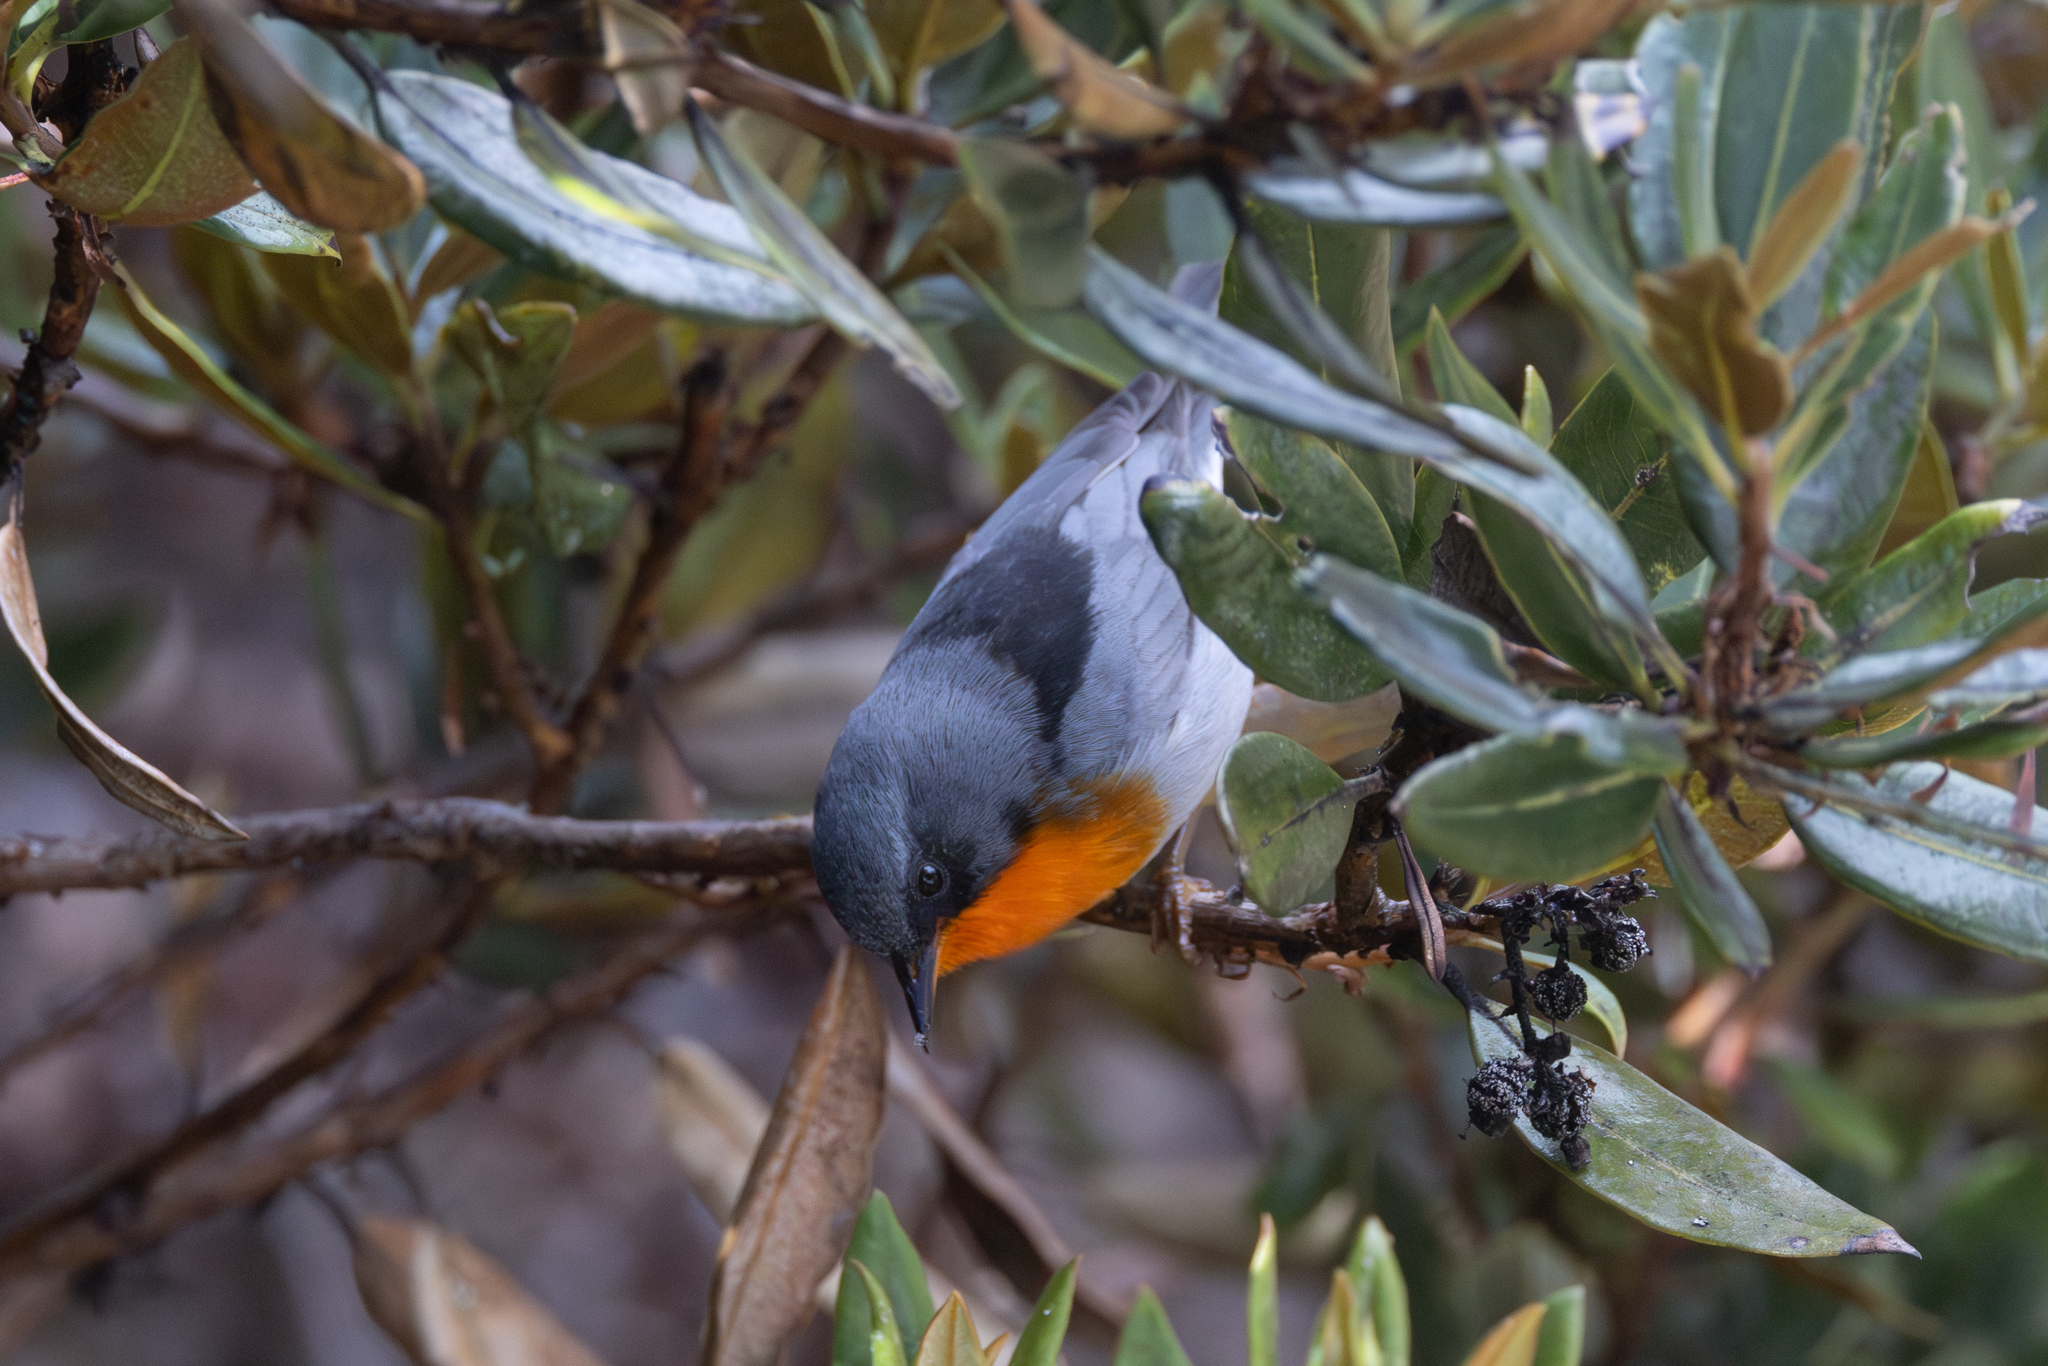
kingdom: Animalia
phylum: Chordata
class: Aves
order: Passeriformes
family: Parulidae
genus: Oreothlypis
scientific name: Oreothlypis gutturalis
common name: Flame-throated warbler
